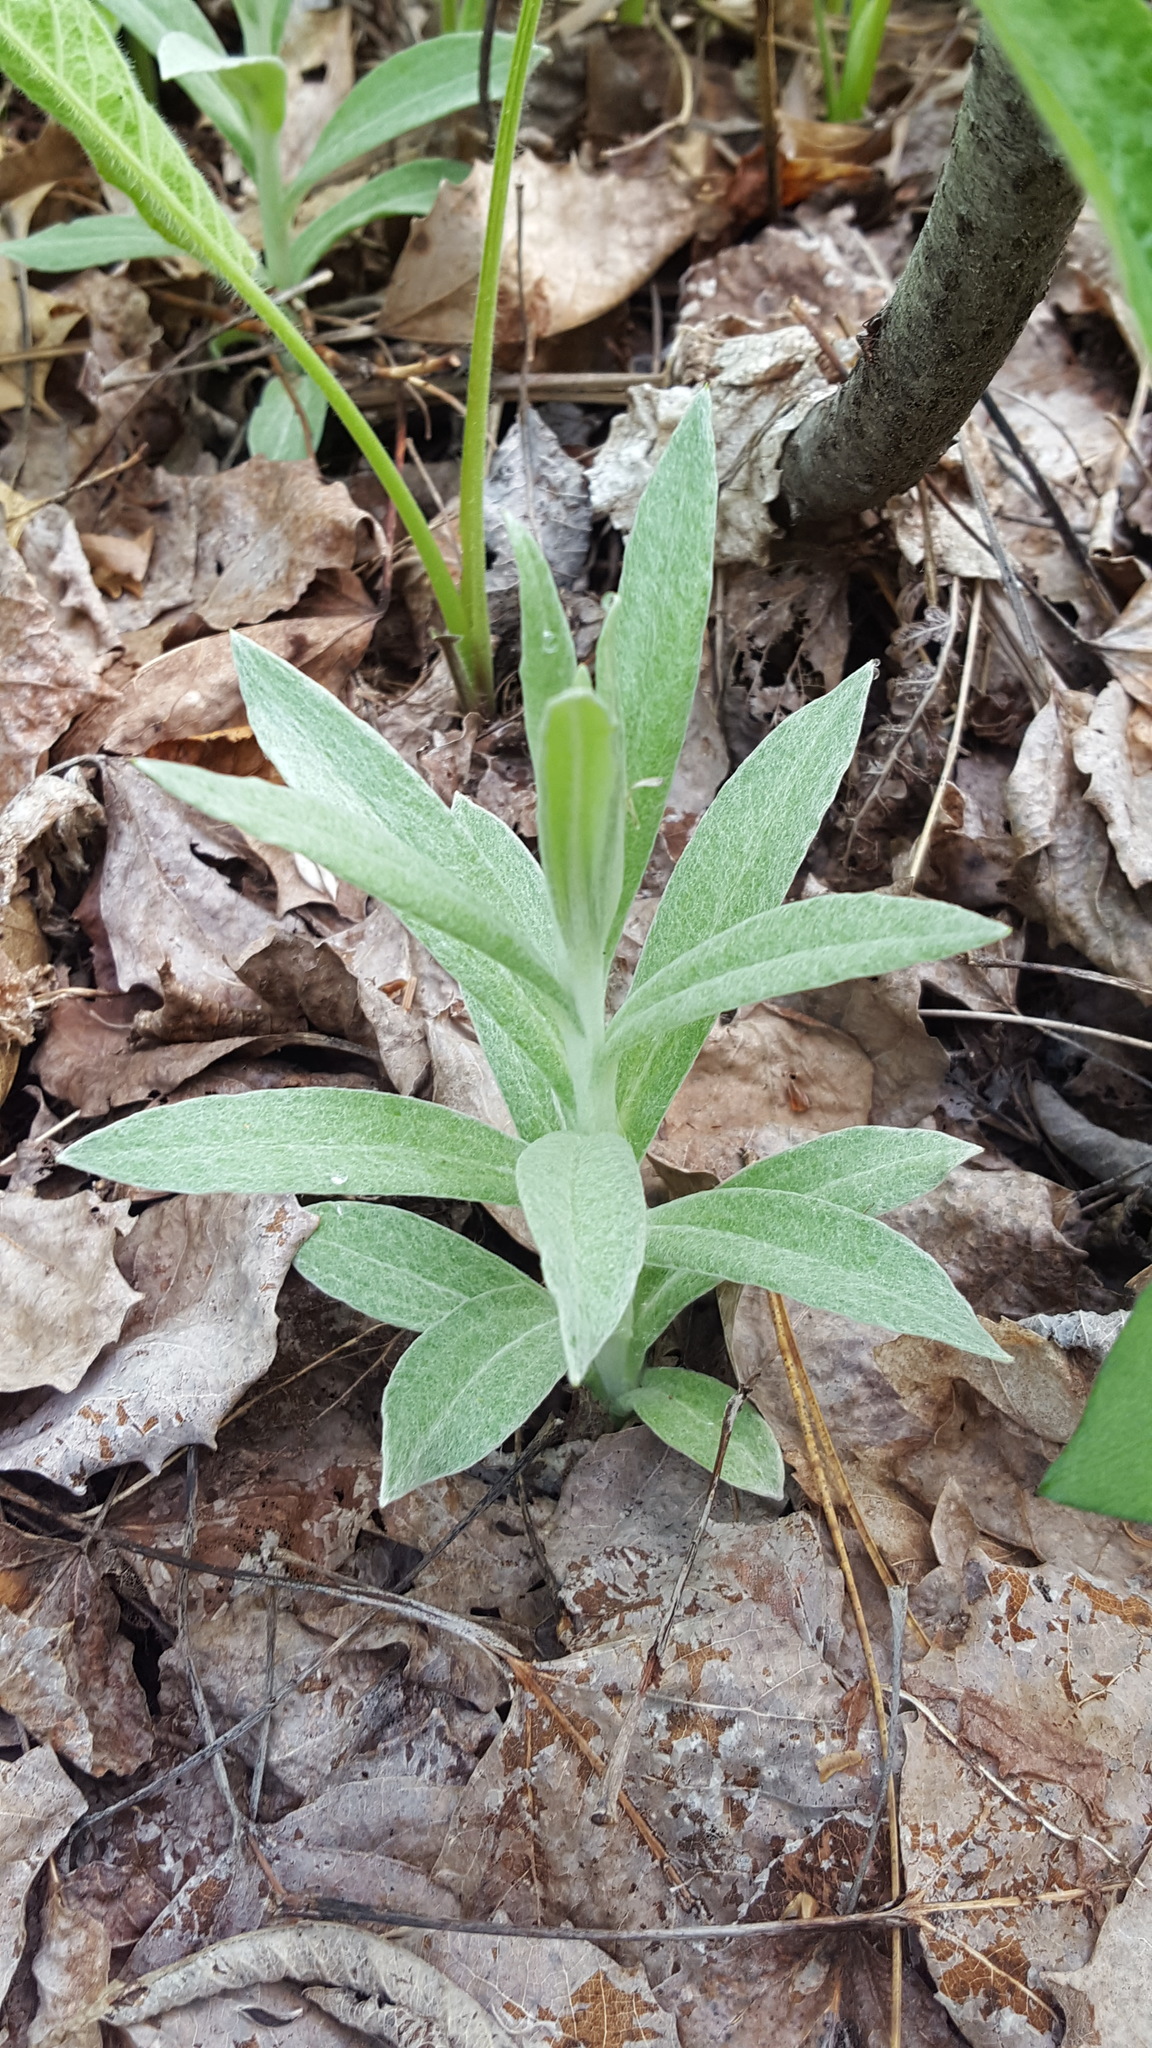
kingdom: Plantae
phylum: Tracheophyta
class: Magnoliopsida
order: Asterales
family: Asteraceae
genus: Anaphalis
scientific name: Anaphalis margaritacea
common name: Pearly everlasting
